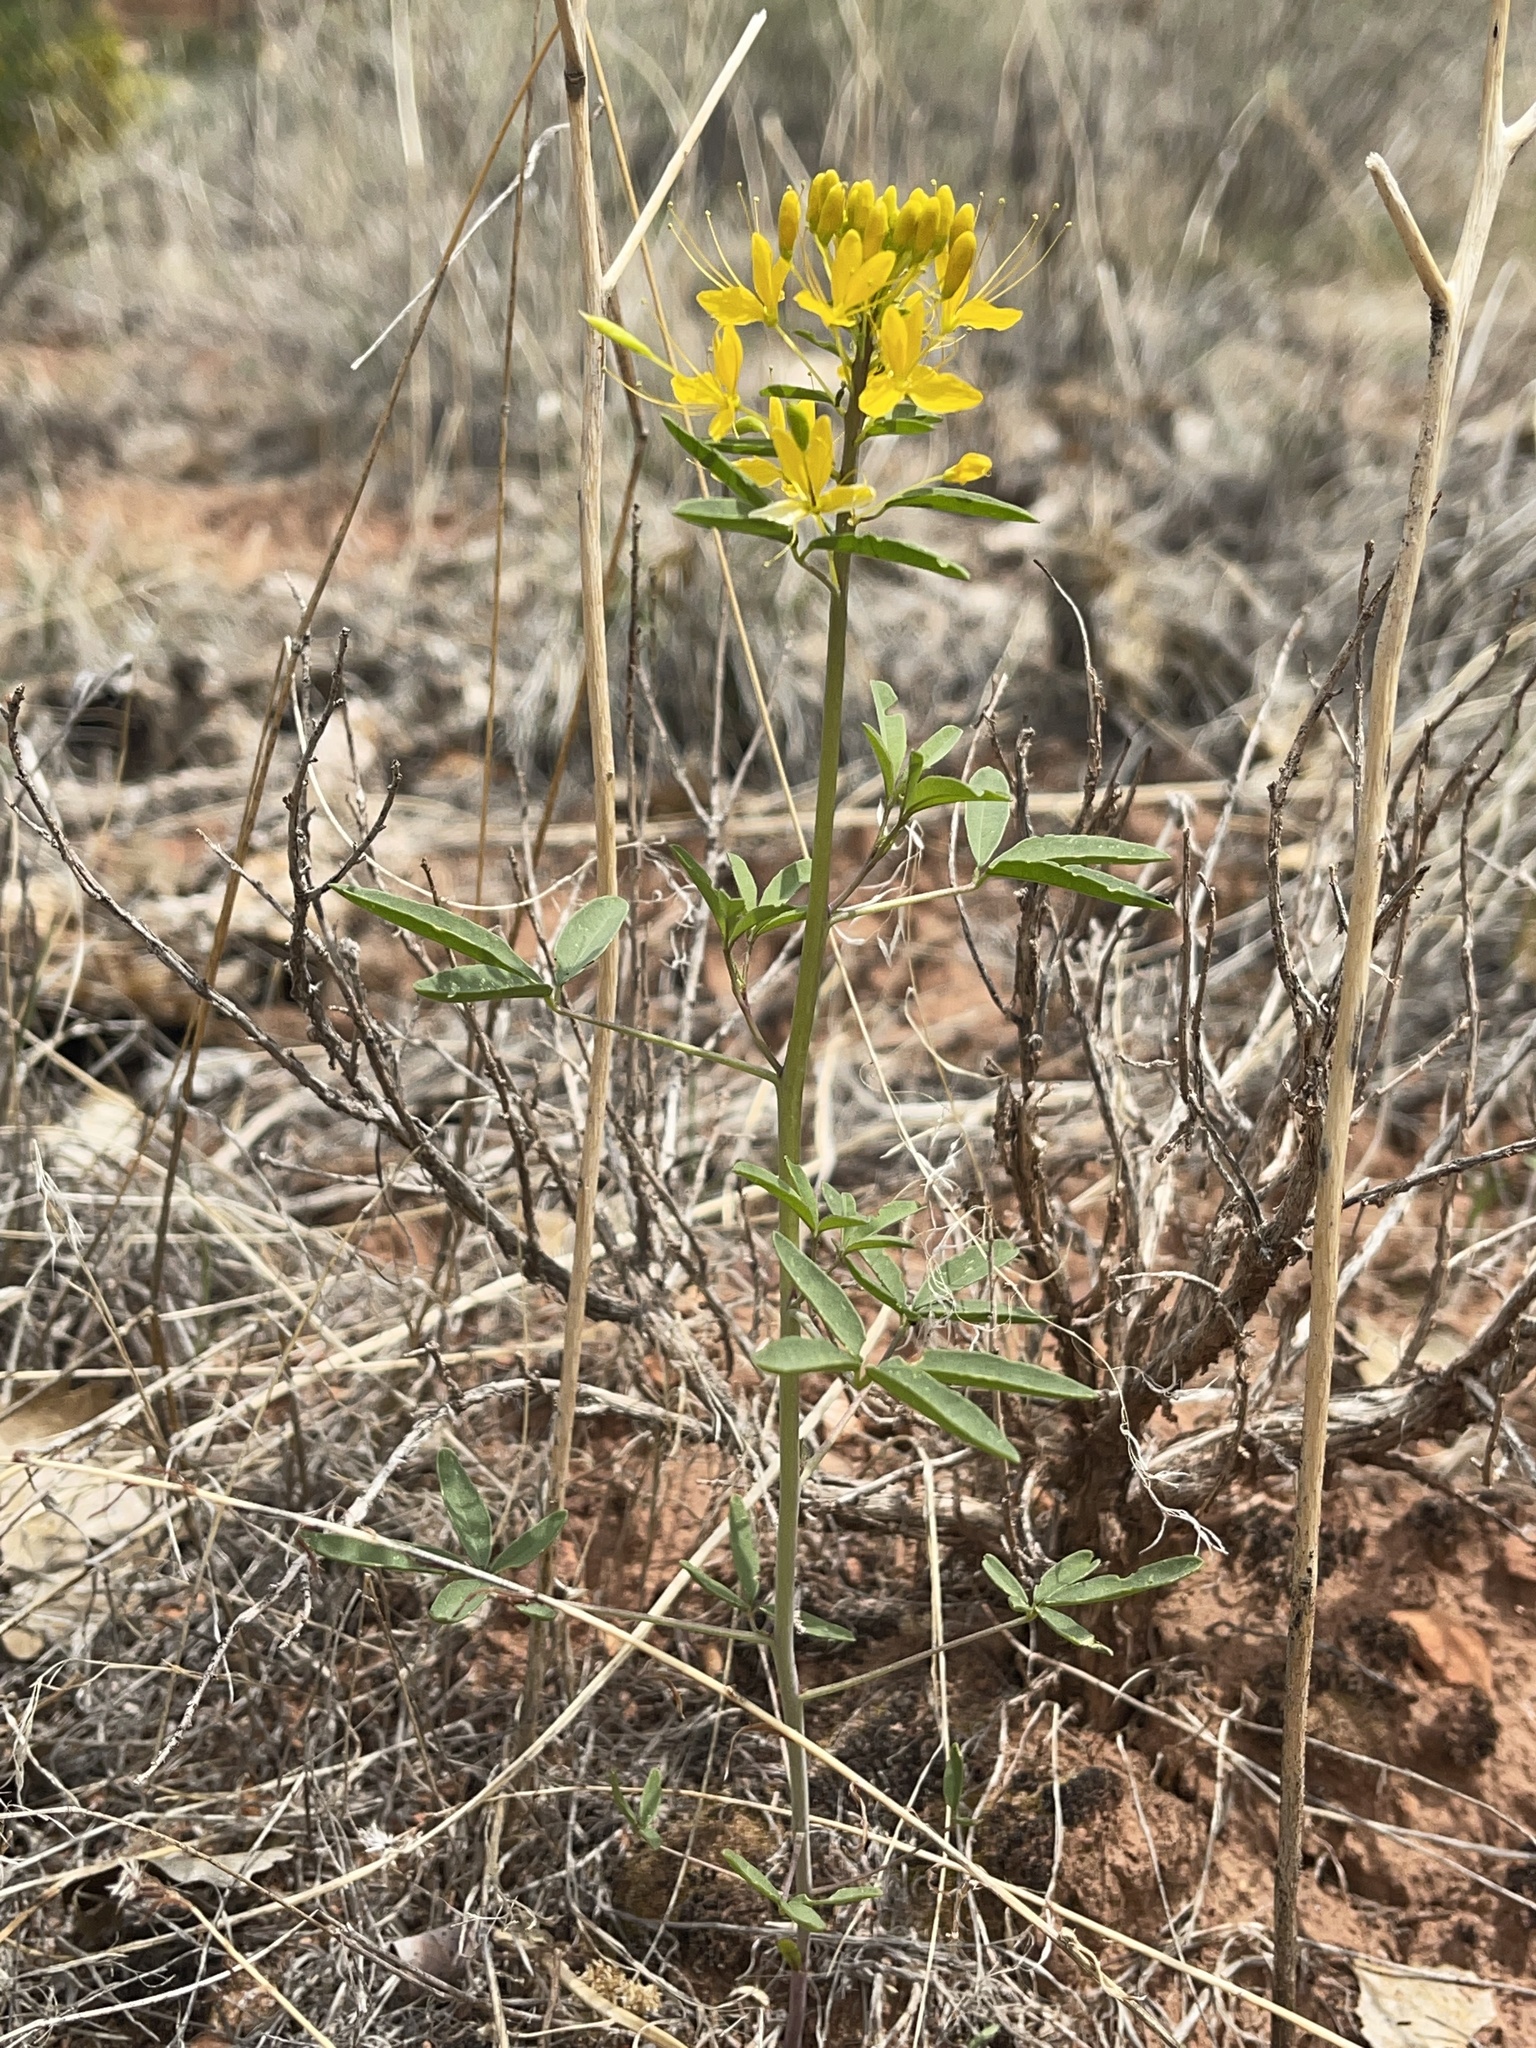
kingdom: Plantae
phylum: Tracheophyta
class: Magnoliopsida
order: Brassicales
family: Cleomaceae
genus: Cleomella
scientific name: Cleomella lutea
